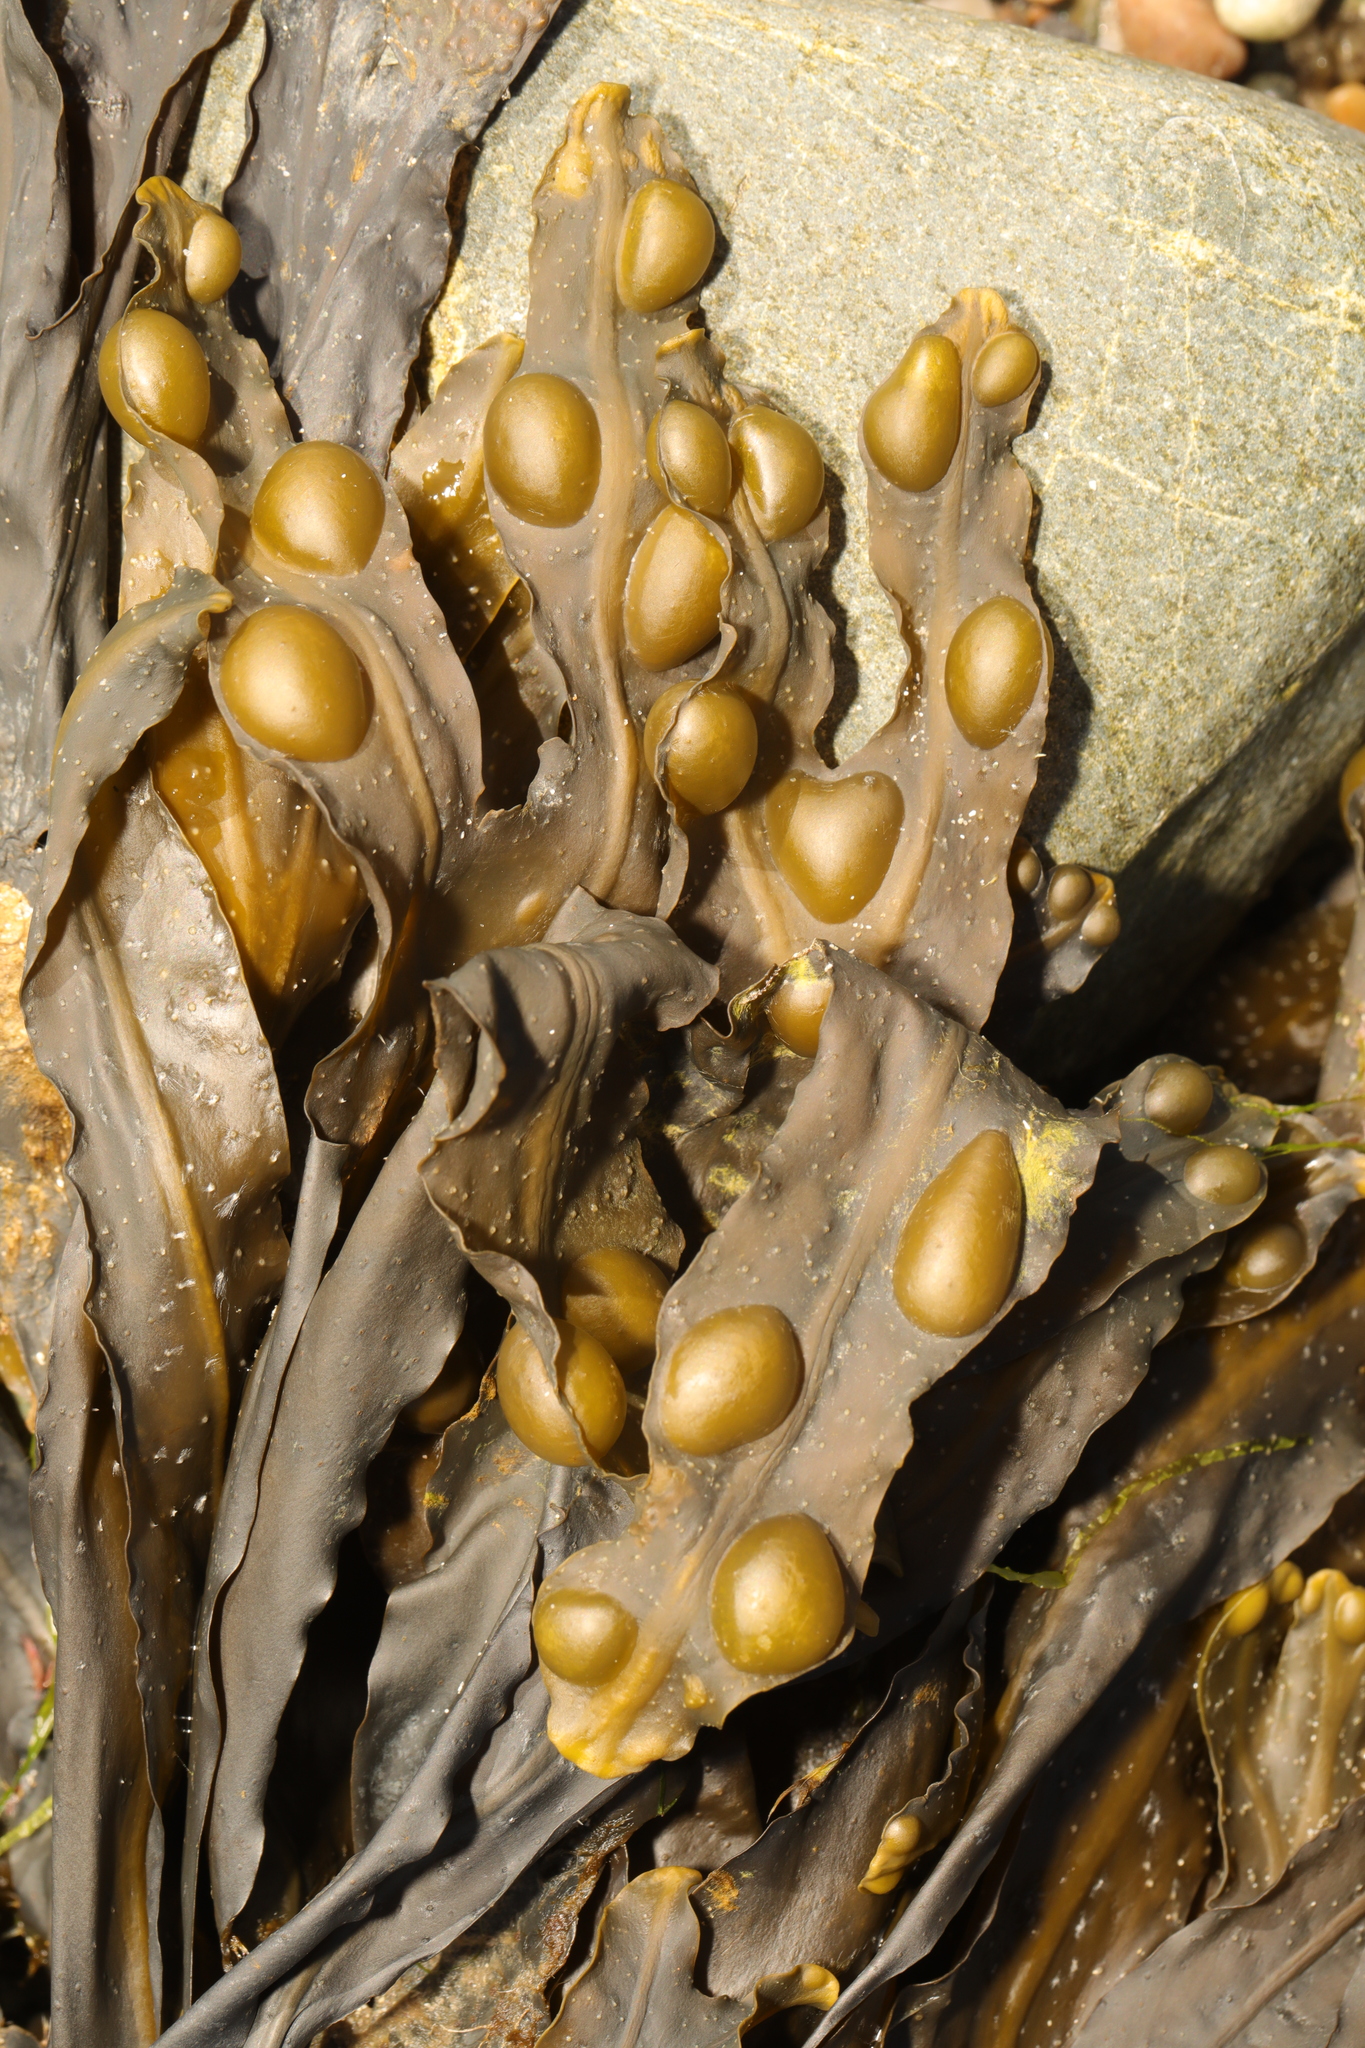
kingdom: Chromista
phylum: Ochrophyta
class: Phaeophyceae
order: Fucales
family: Fucaceae
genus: Fucus
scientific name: Fucus vesiculosus
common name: Bladder wrack
